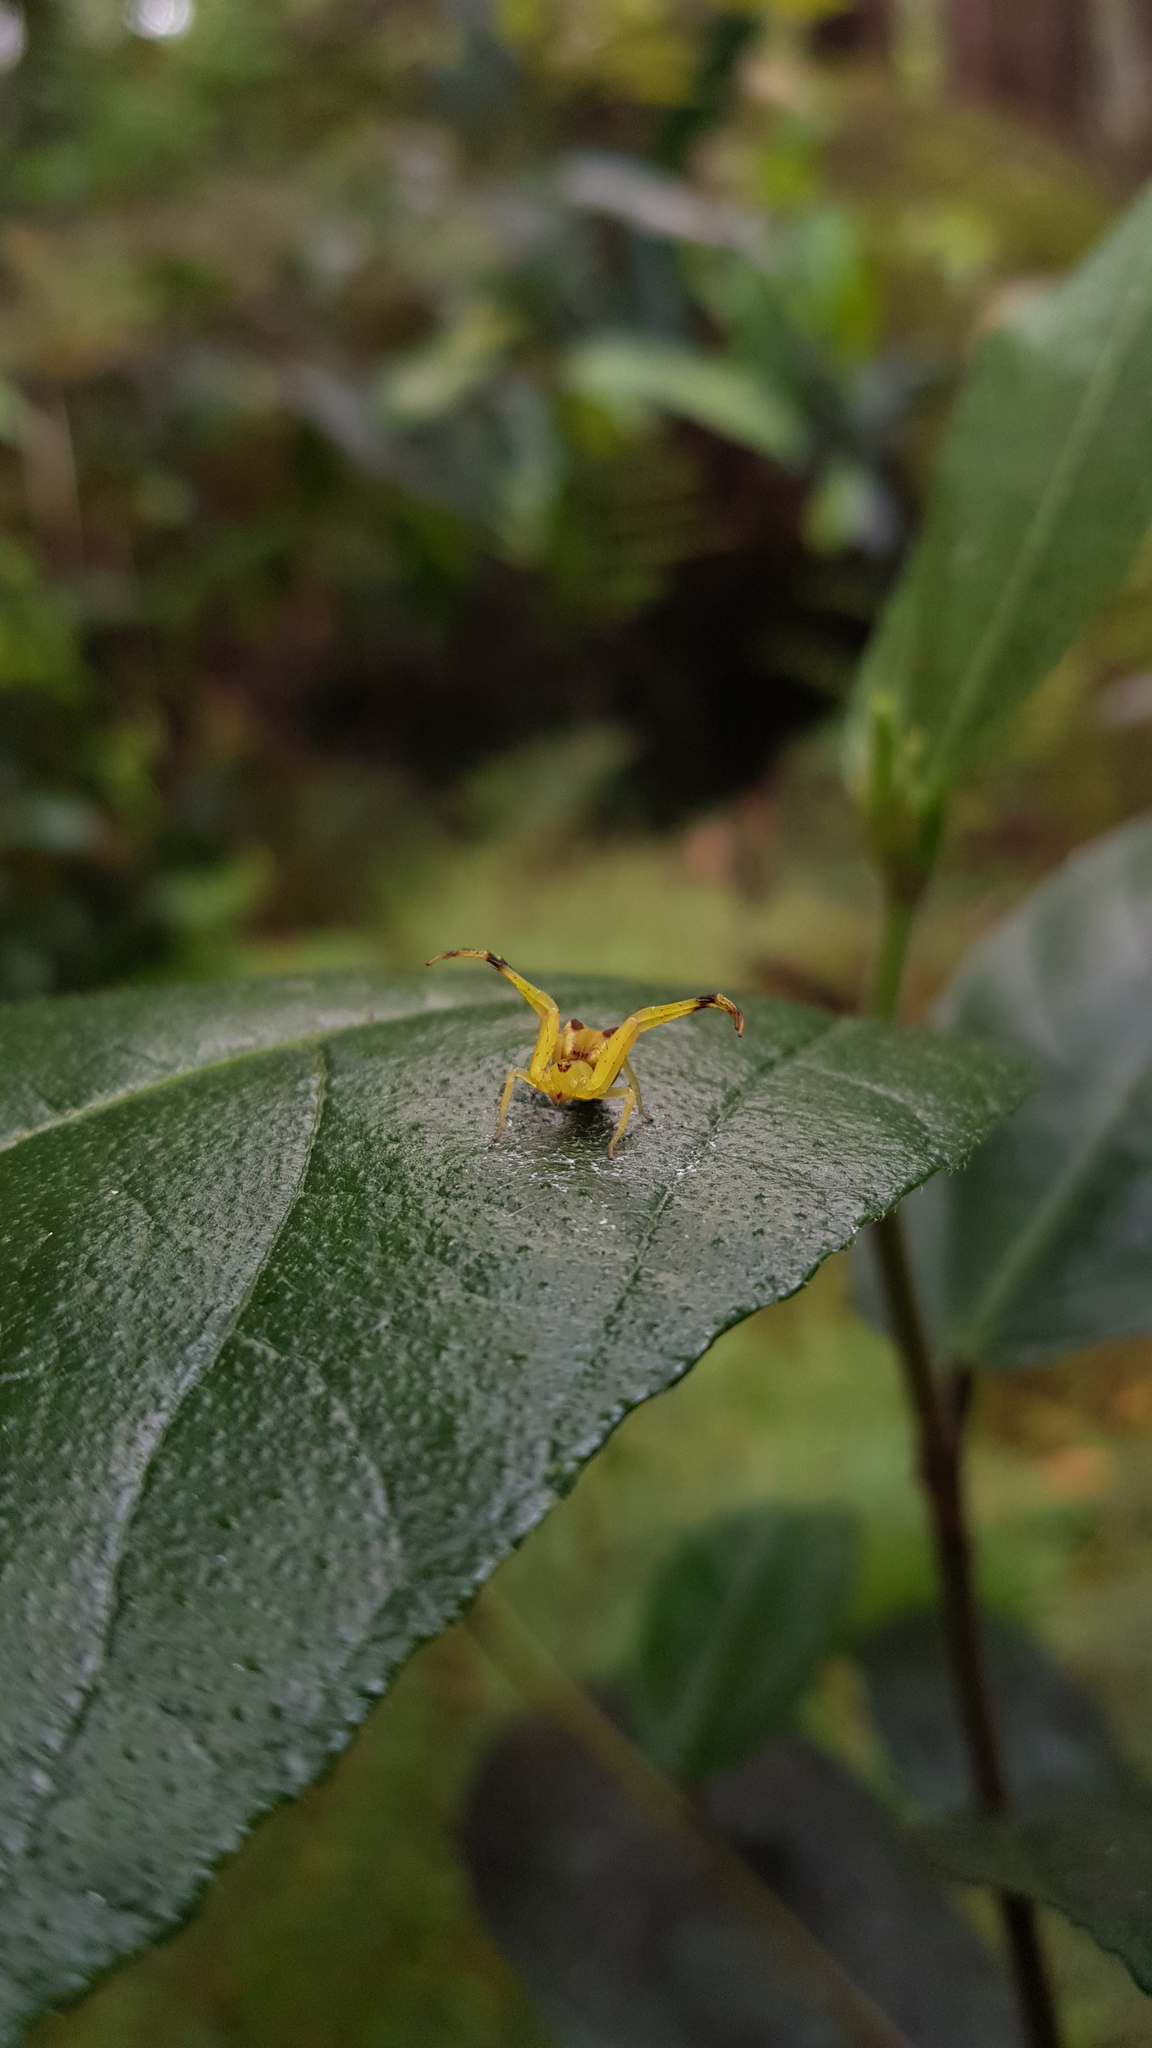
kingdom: Animalia
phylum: Arthropoda
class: Arachnida
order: Araneae
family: Thomisidae
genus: Sidymella
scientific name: Sidymella rubrosignata
